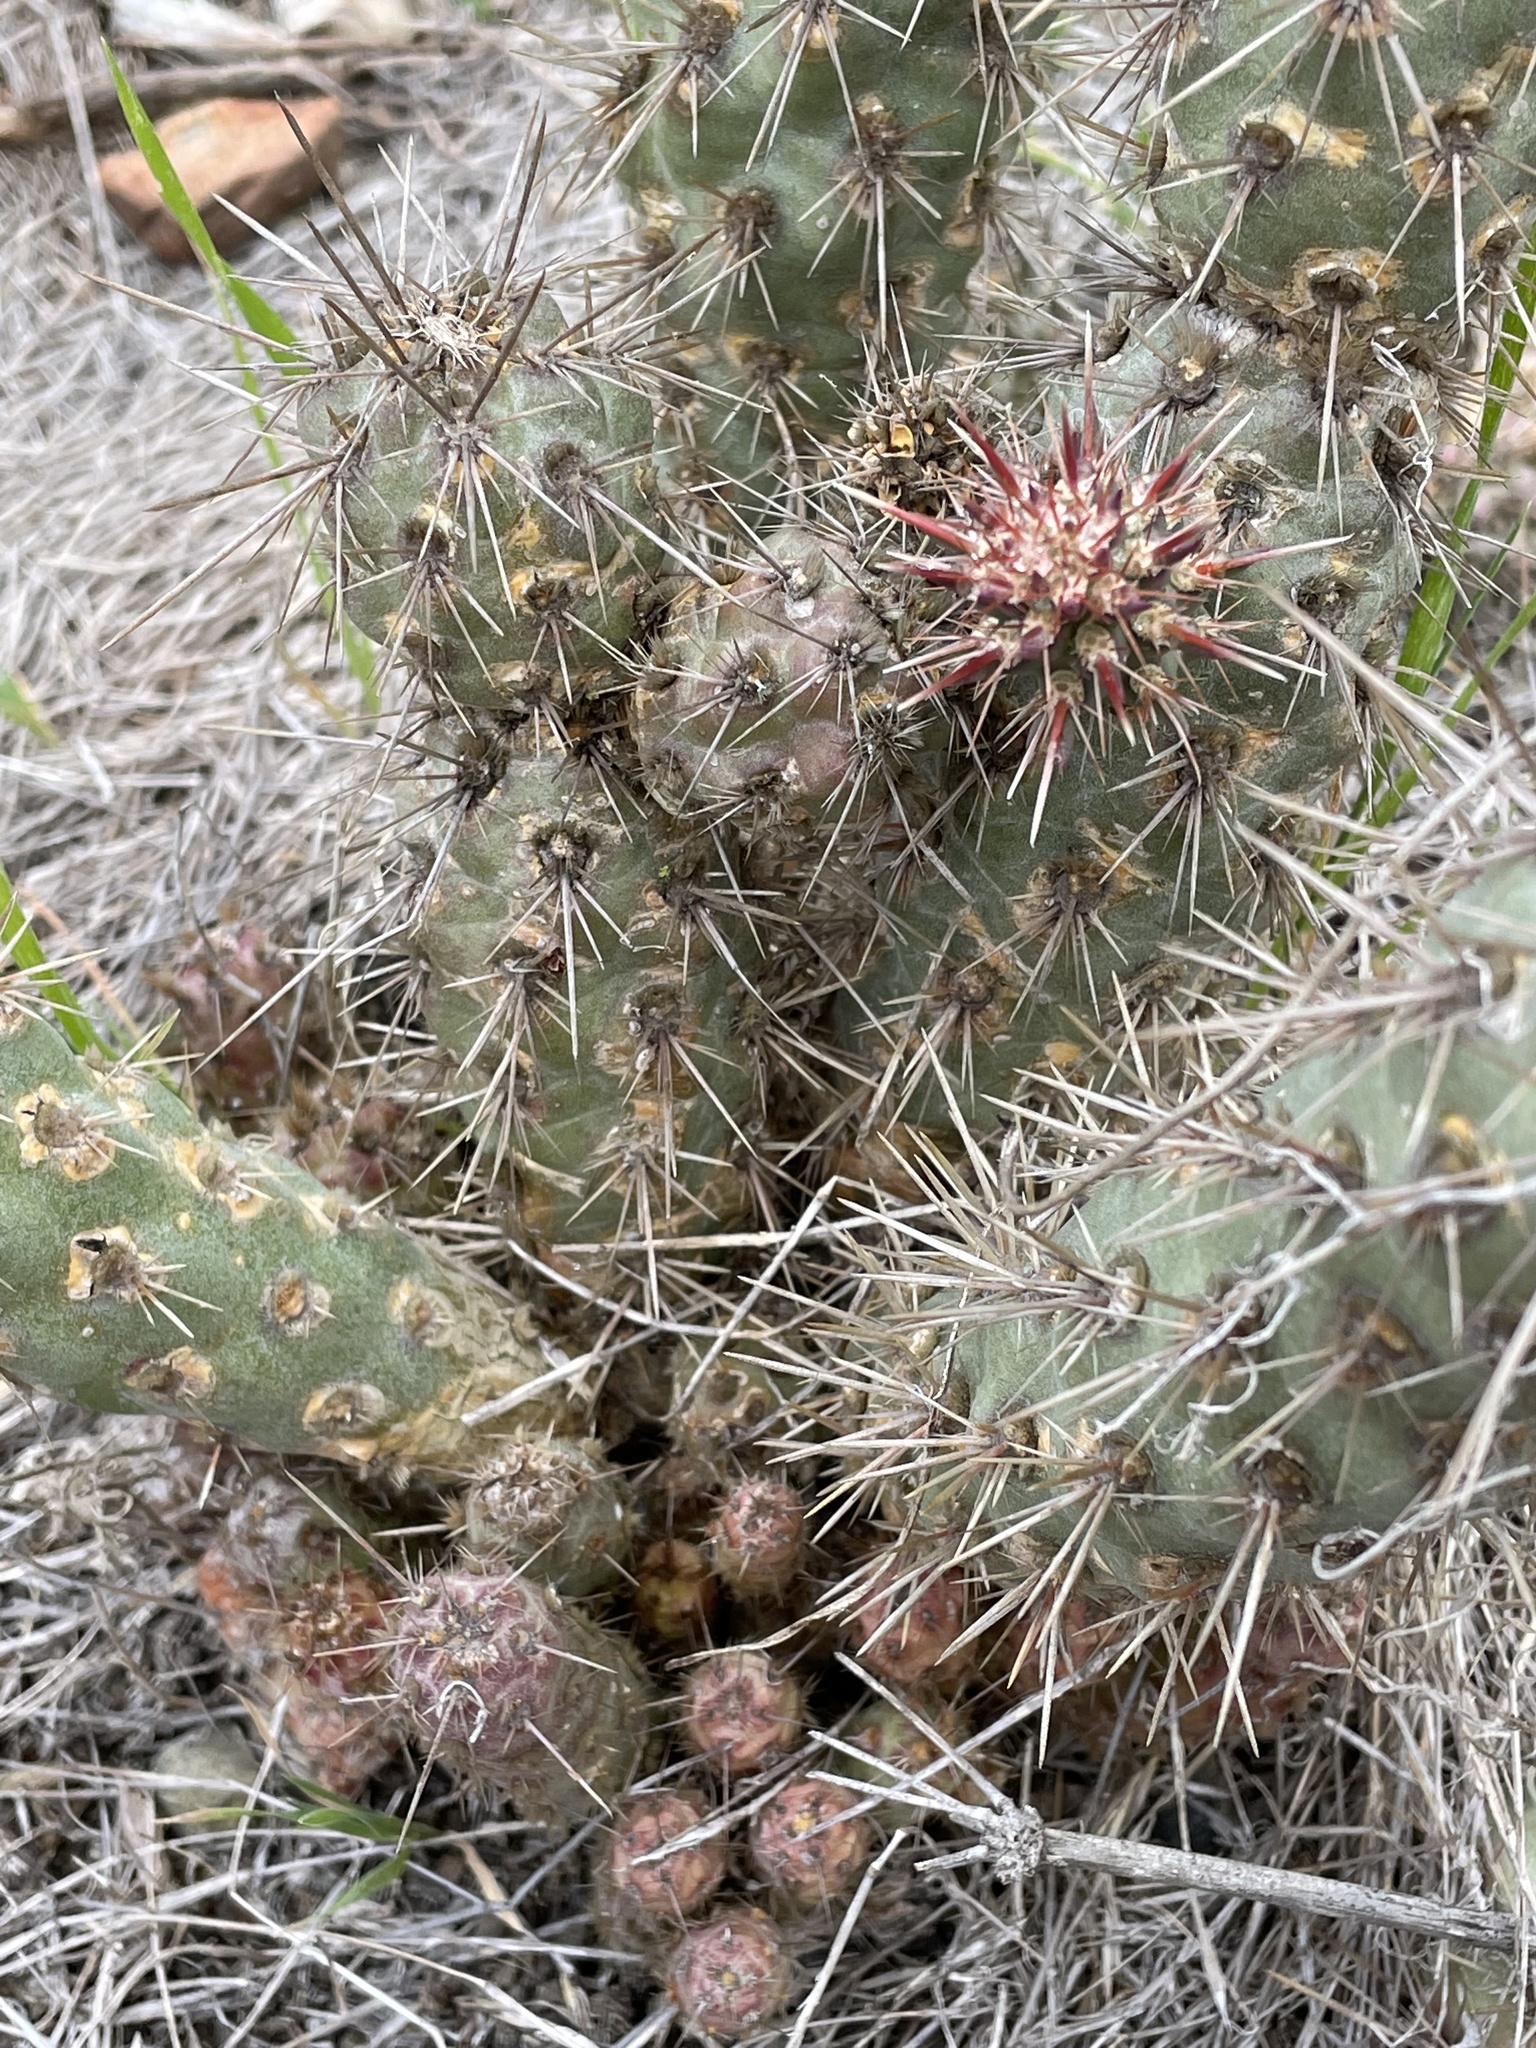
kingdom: Plantae
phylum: Tracheophyta
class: Magnoliopsida
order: Caryophyllales
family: Cactaceae
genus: Cylindropuntia
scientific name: Cylindropuntia prolifera
